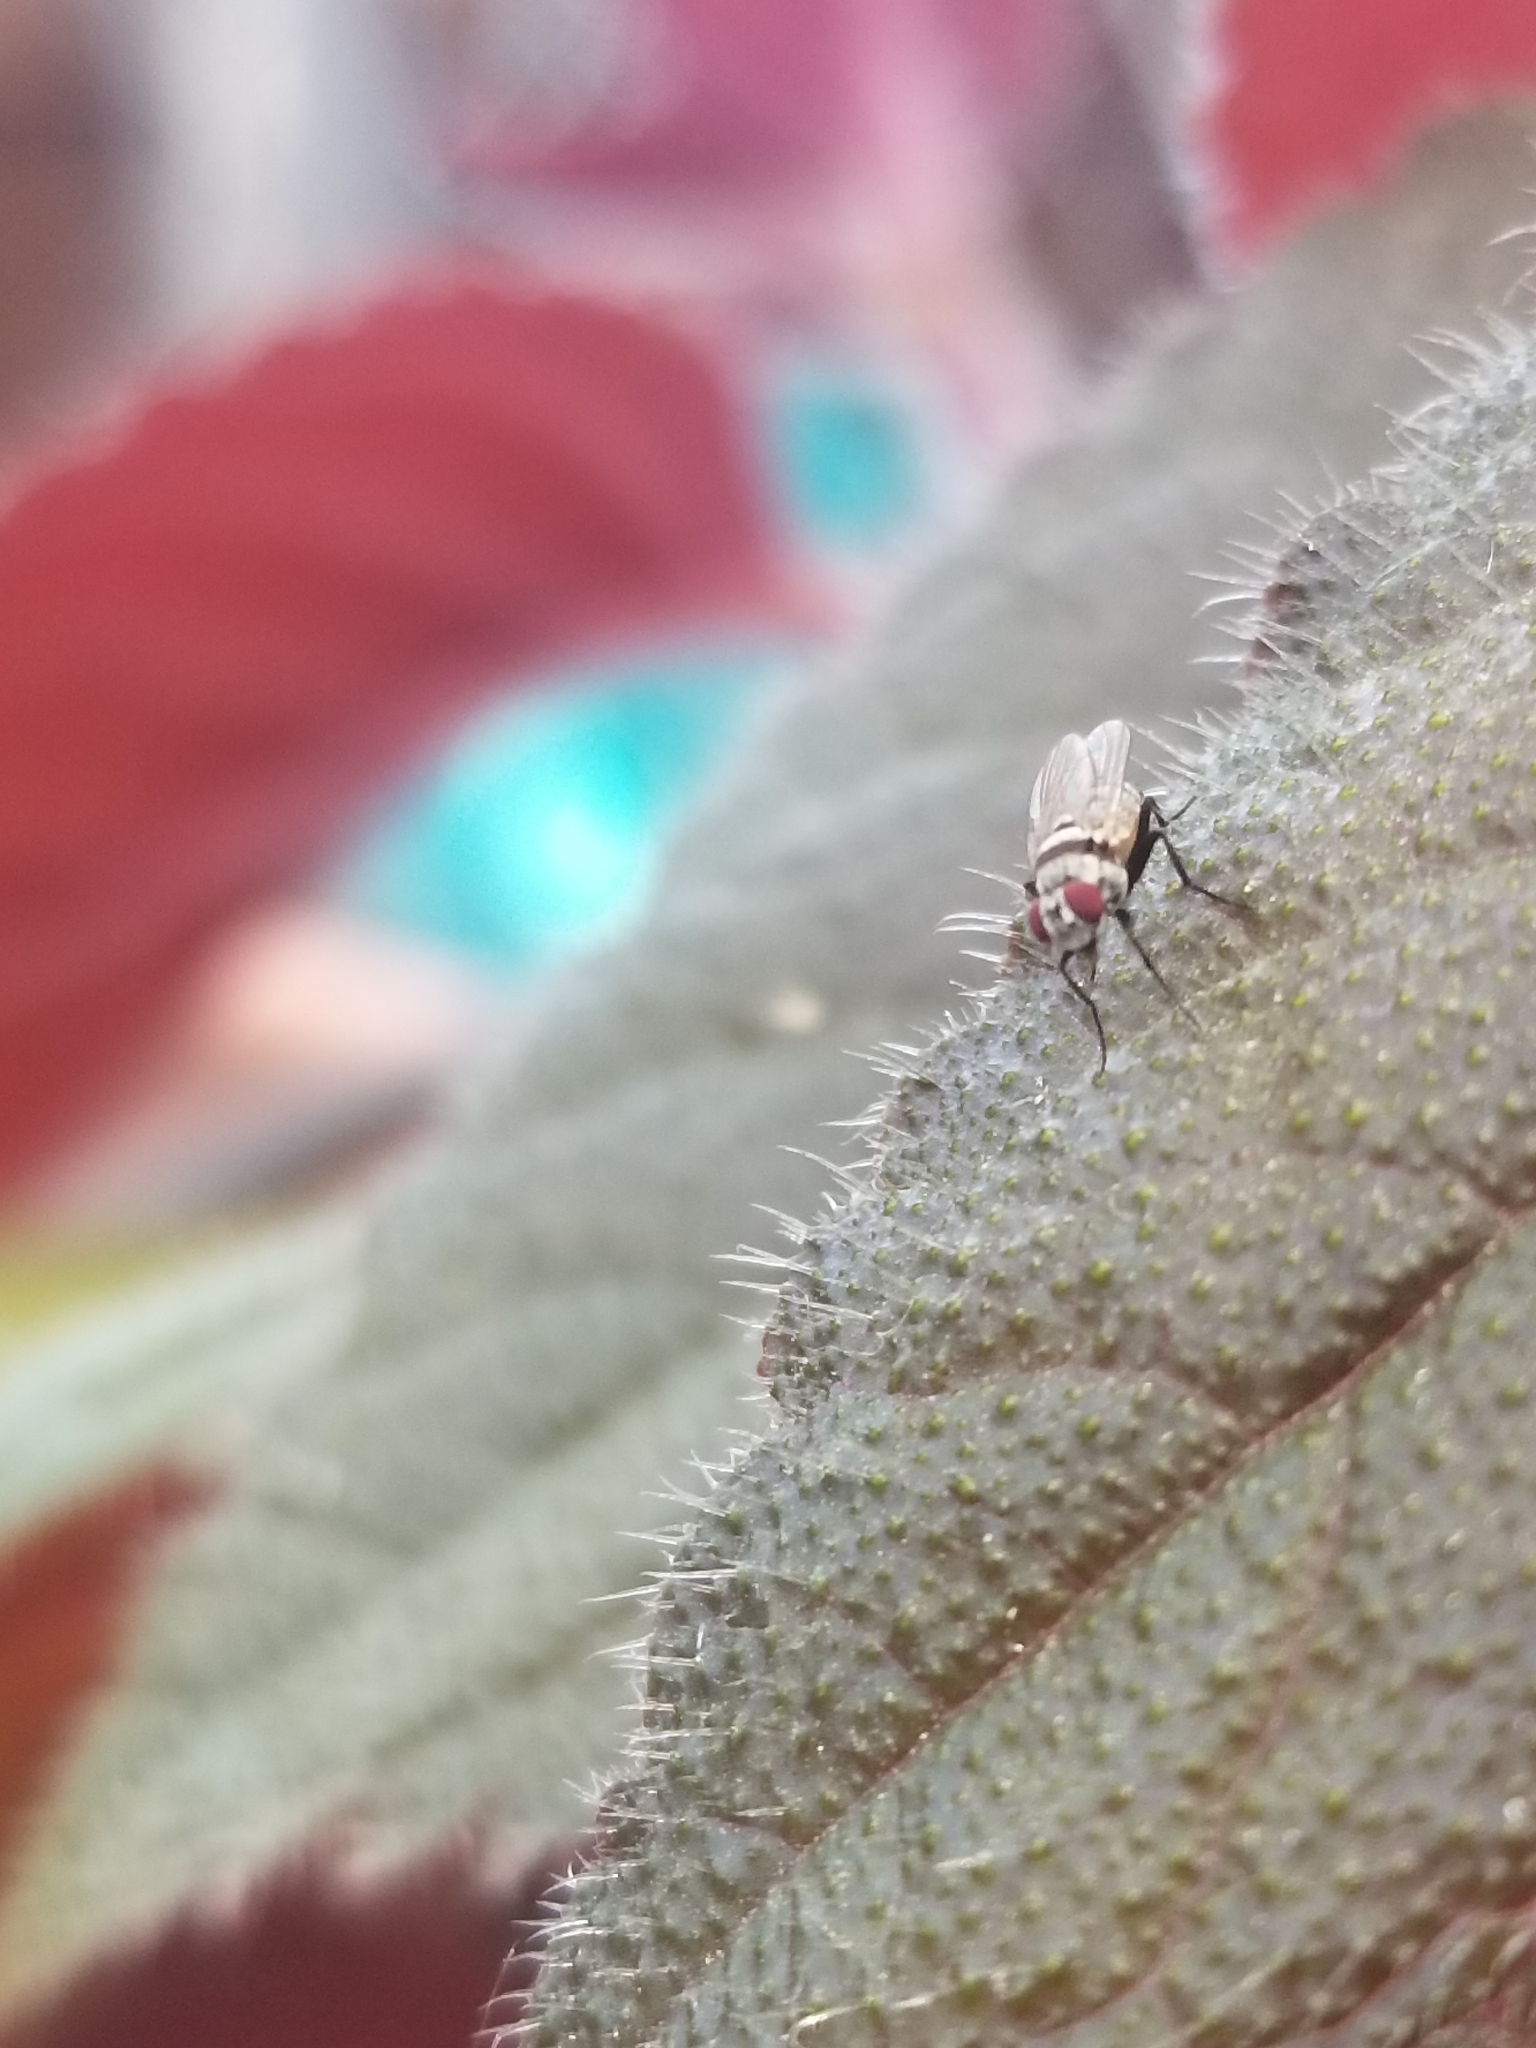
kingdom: Animalia
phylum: Arthropoda
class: Insecta
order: Diptera
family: Anthomyiidae
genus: Anthomyia
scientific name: Anthomyia illocata
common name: Fly
